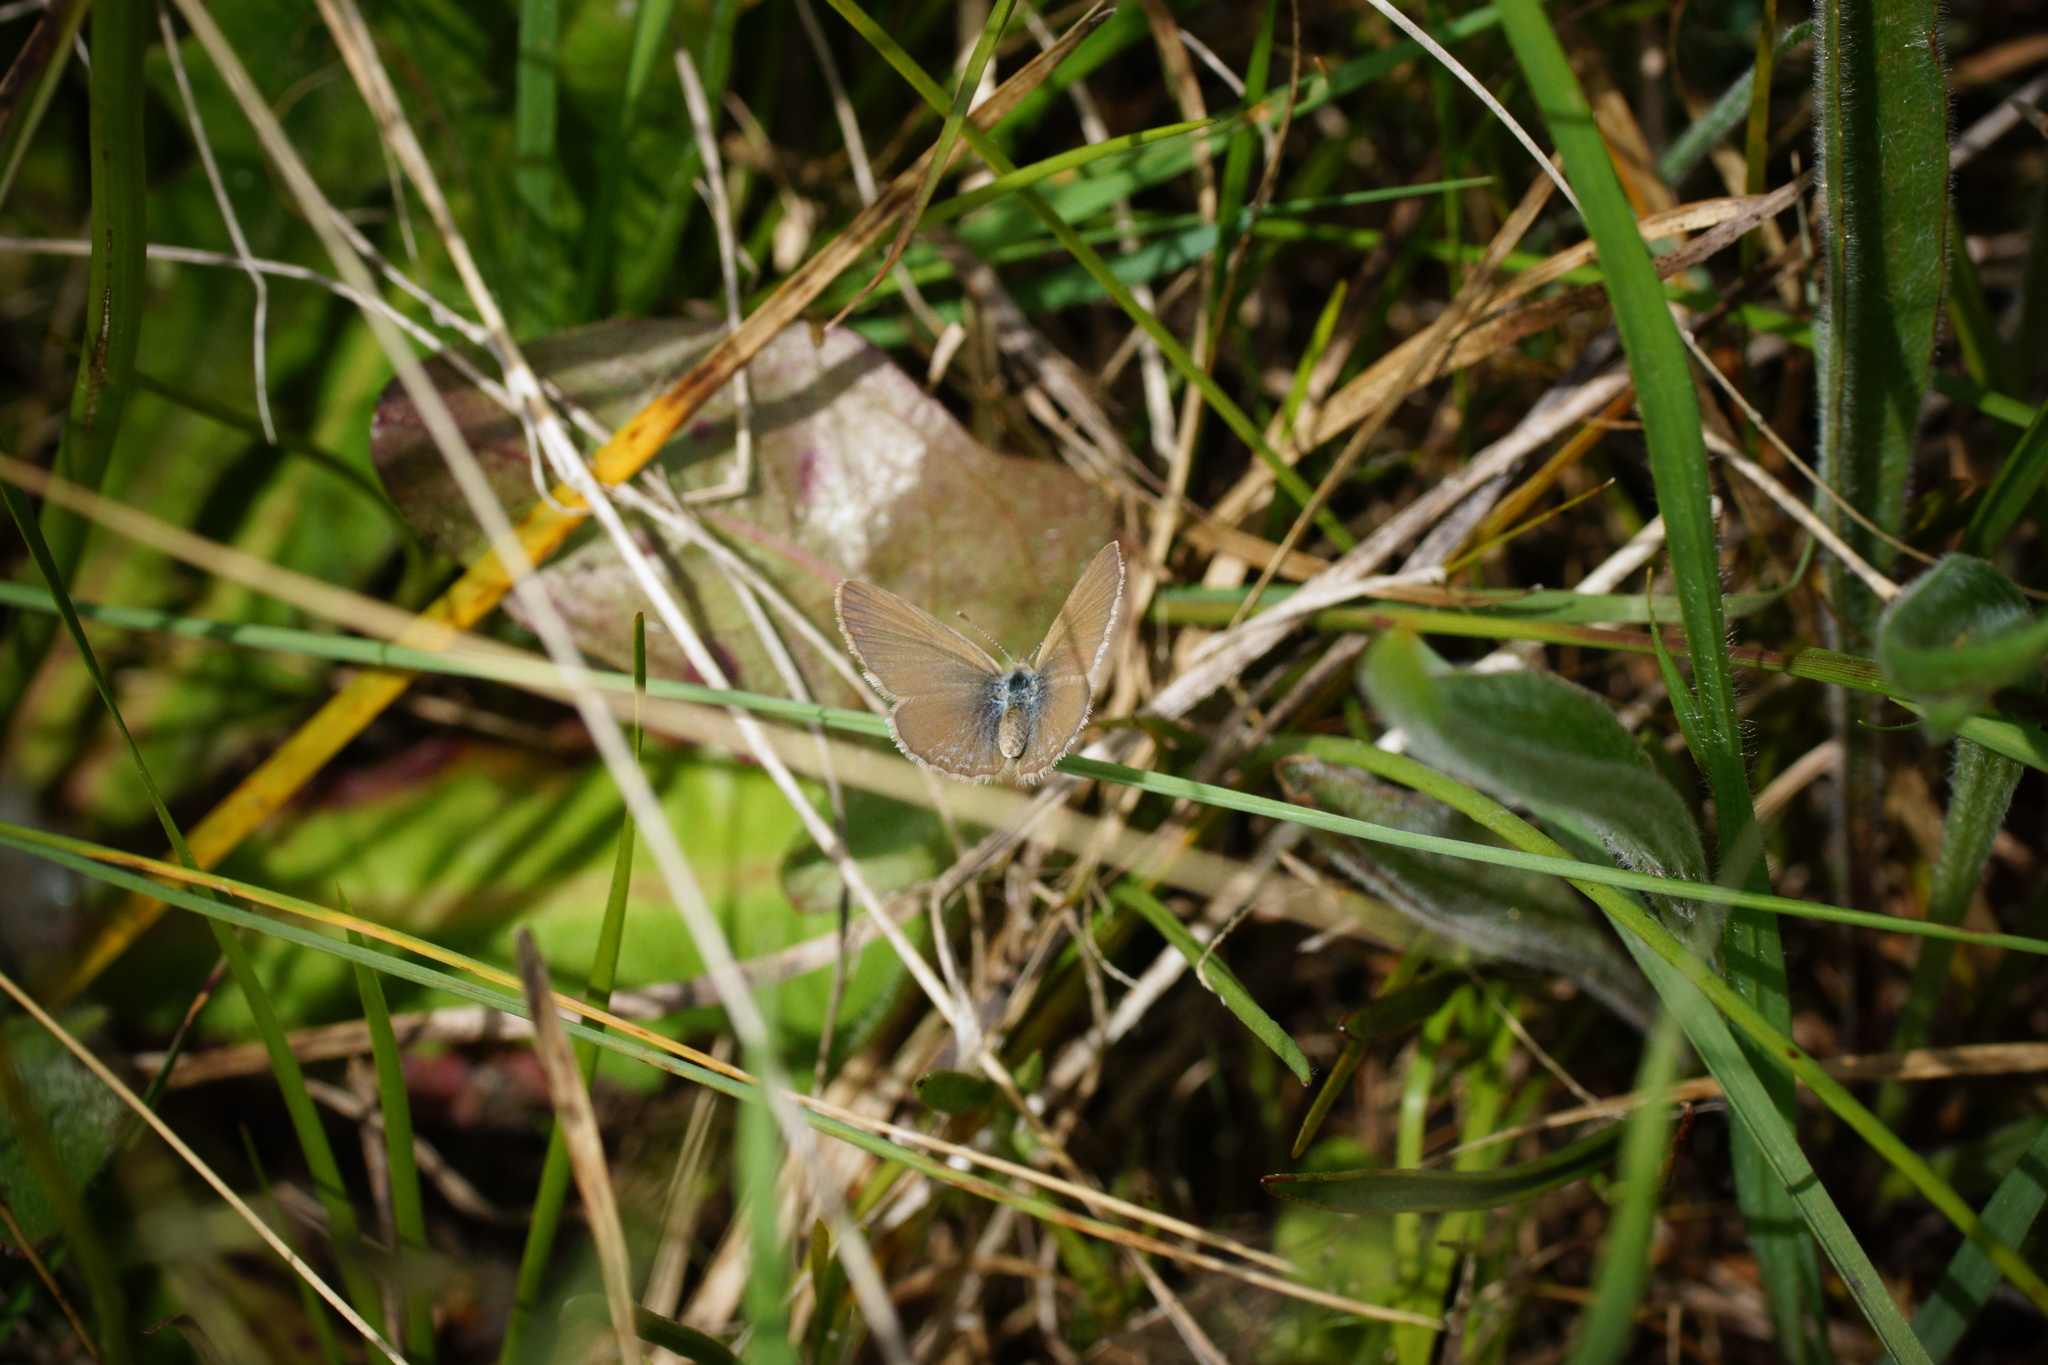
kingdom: Animalia
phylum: Arthropoda
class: Insecta
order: Lepidoptera
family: Lycaenidae
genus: Zizina
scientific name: Zizina otis
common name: Lesser grass blue
